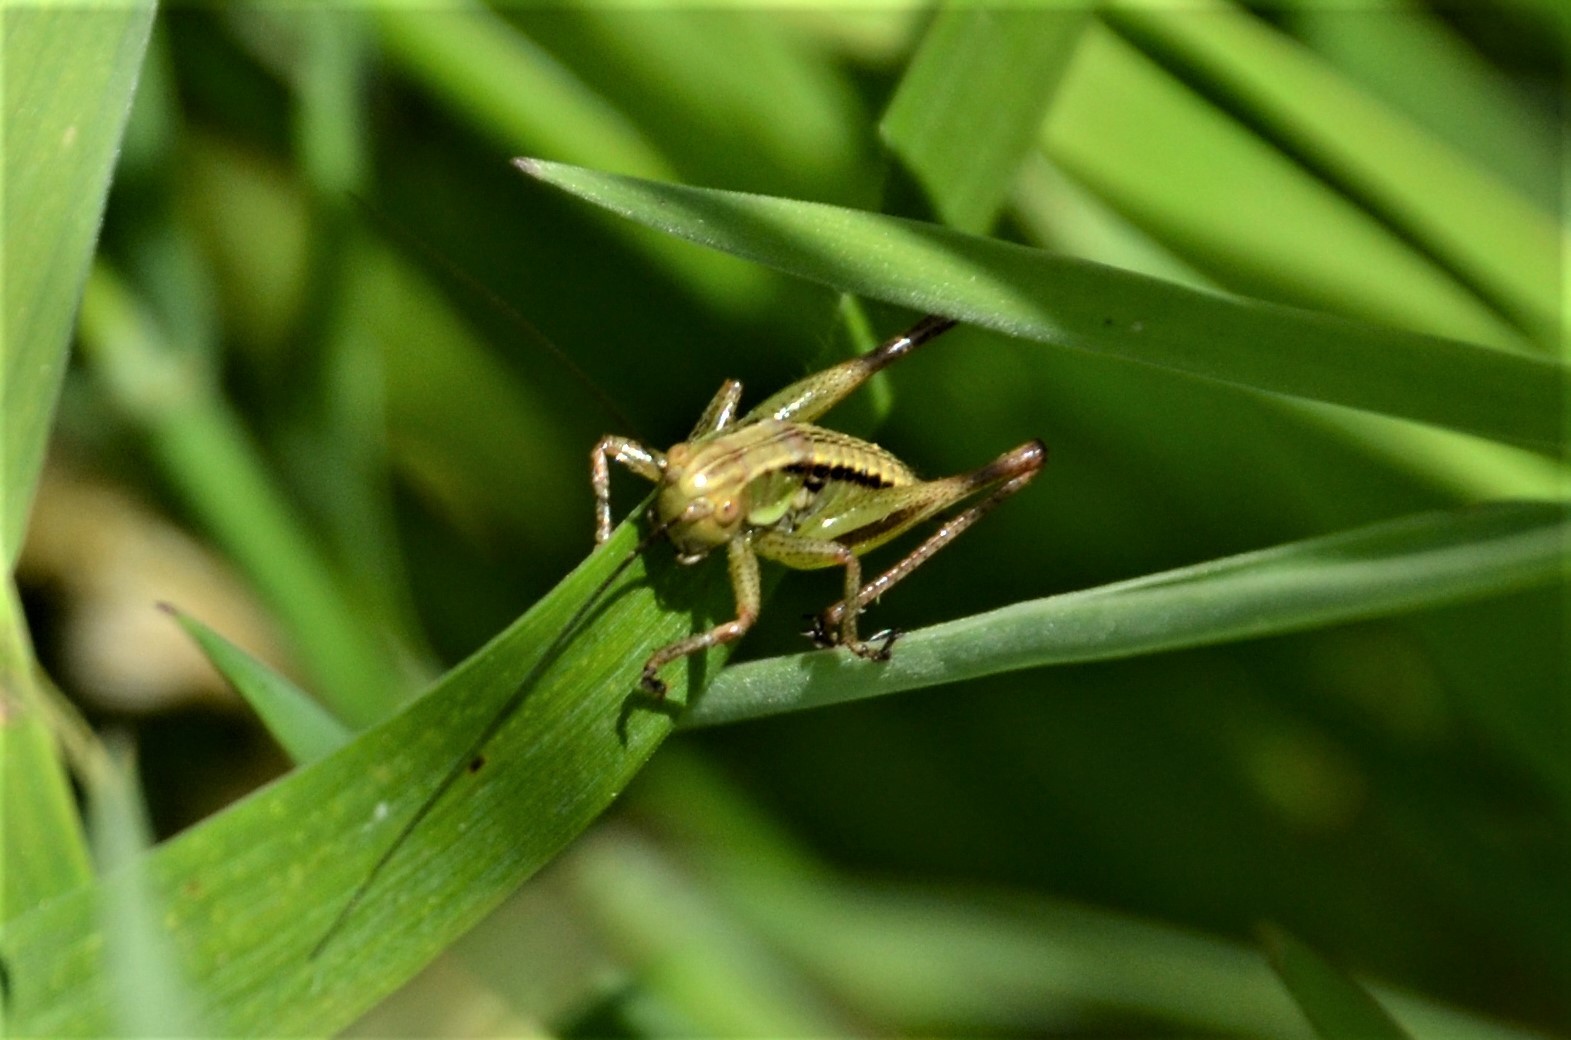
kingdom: Animalia
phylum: Arthropoda
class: Insecta
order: Orthoptera
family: Tettigoniidae
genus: Roeseliana
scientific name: Roeseliana roeselii
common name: Roesel's bush cricket
